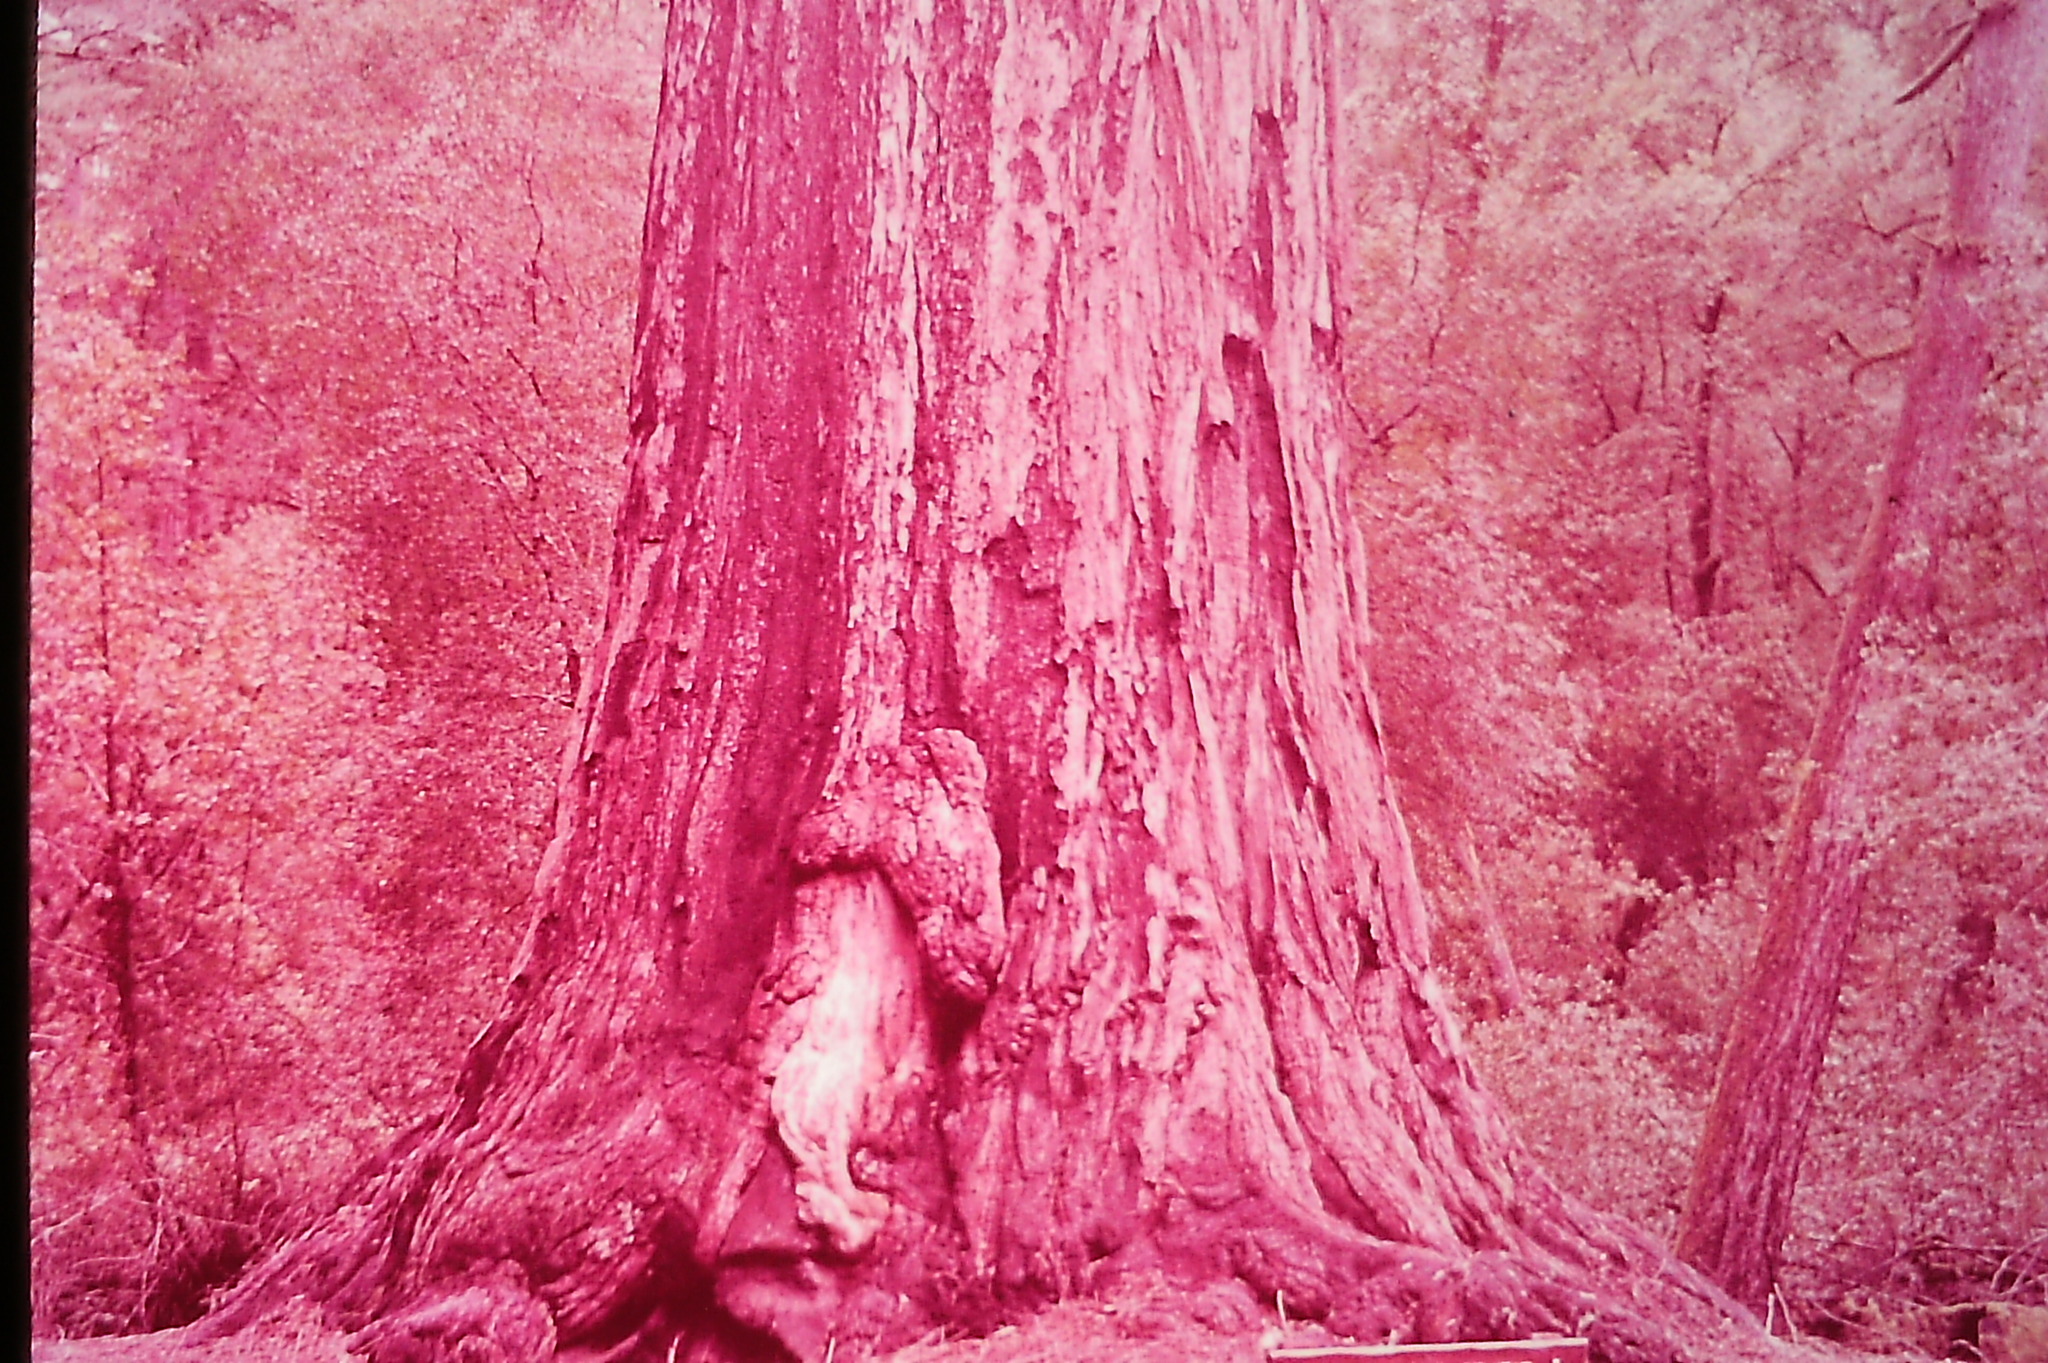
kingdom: Plantae
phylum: Tracheophyta
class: Pinopsida
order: Pinales
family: Cupressaceae
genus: Sequoia
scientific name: Sequoia sempervirens
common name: Coast redwood
